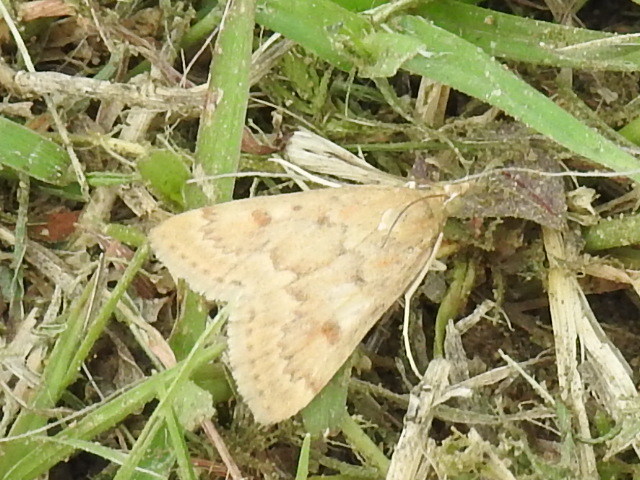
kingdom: Animalia
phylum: Arthropoda
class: Insecta
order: Lepidoptera
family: Crambidae
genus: Achyra
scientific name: Achyra rantalis
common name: Garden webworm
